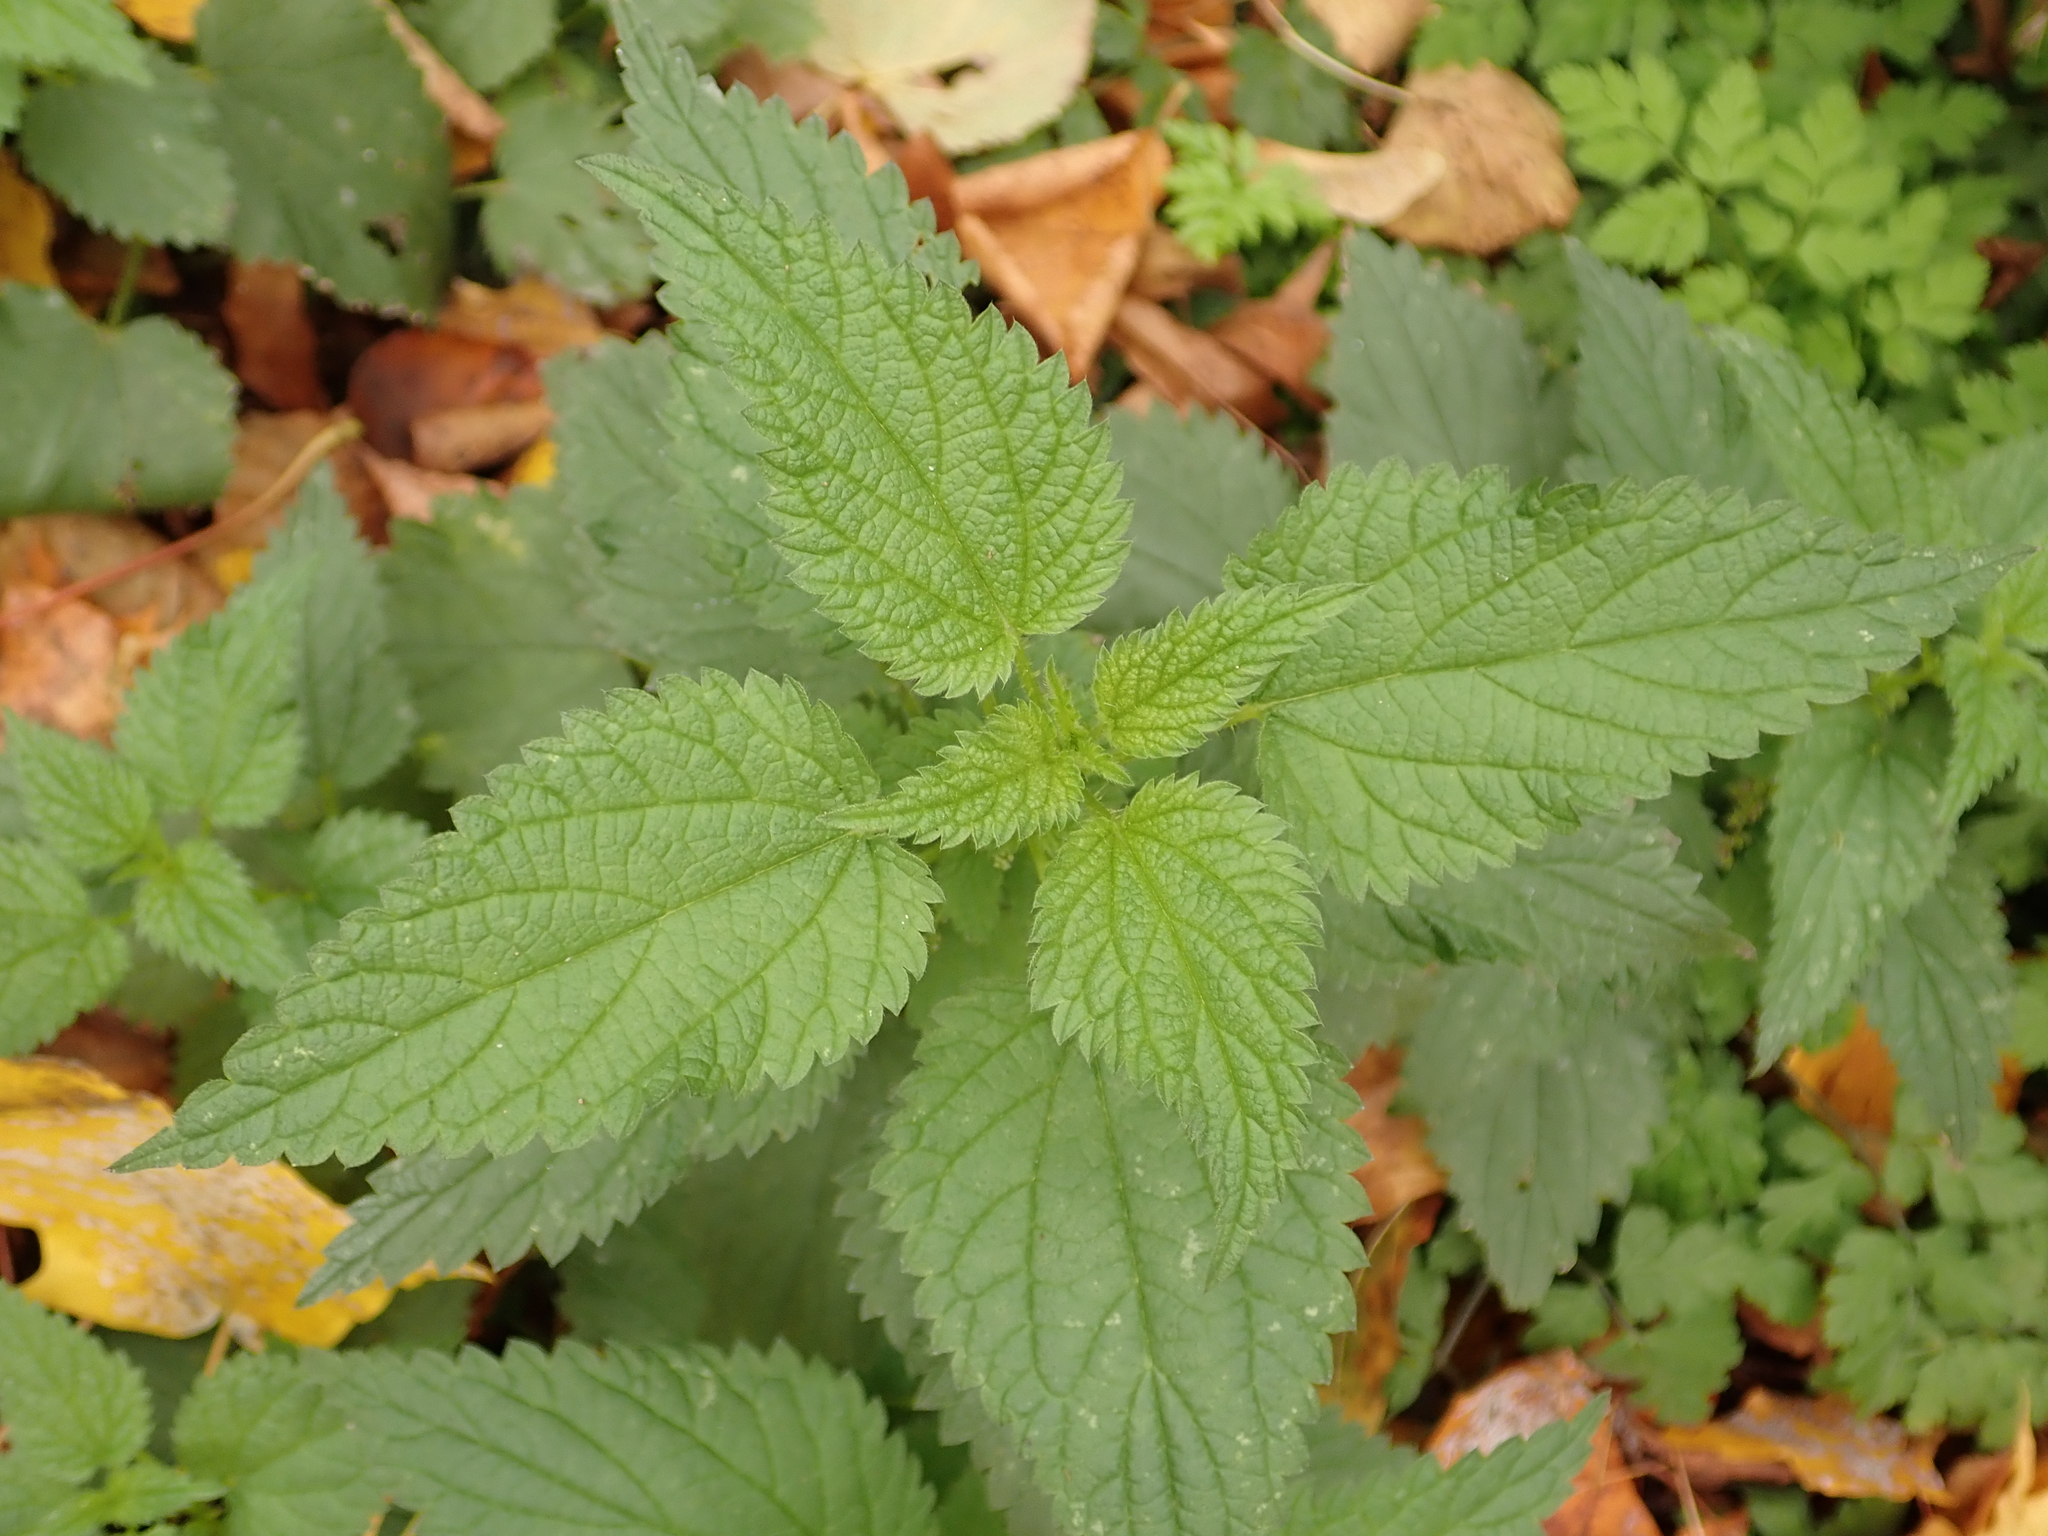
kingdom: Plantae
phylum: Tracheophyta
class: Magnoliopsida
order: Rosales
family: Urticaceae
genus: Urtica
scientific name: Urtica dioica
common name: Common nettle
